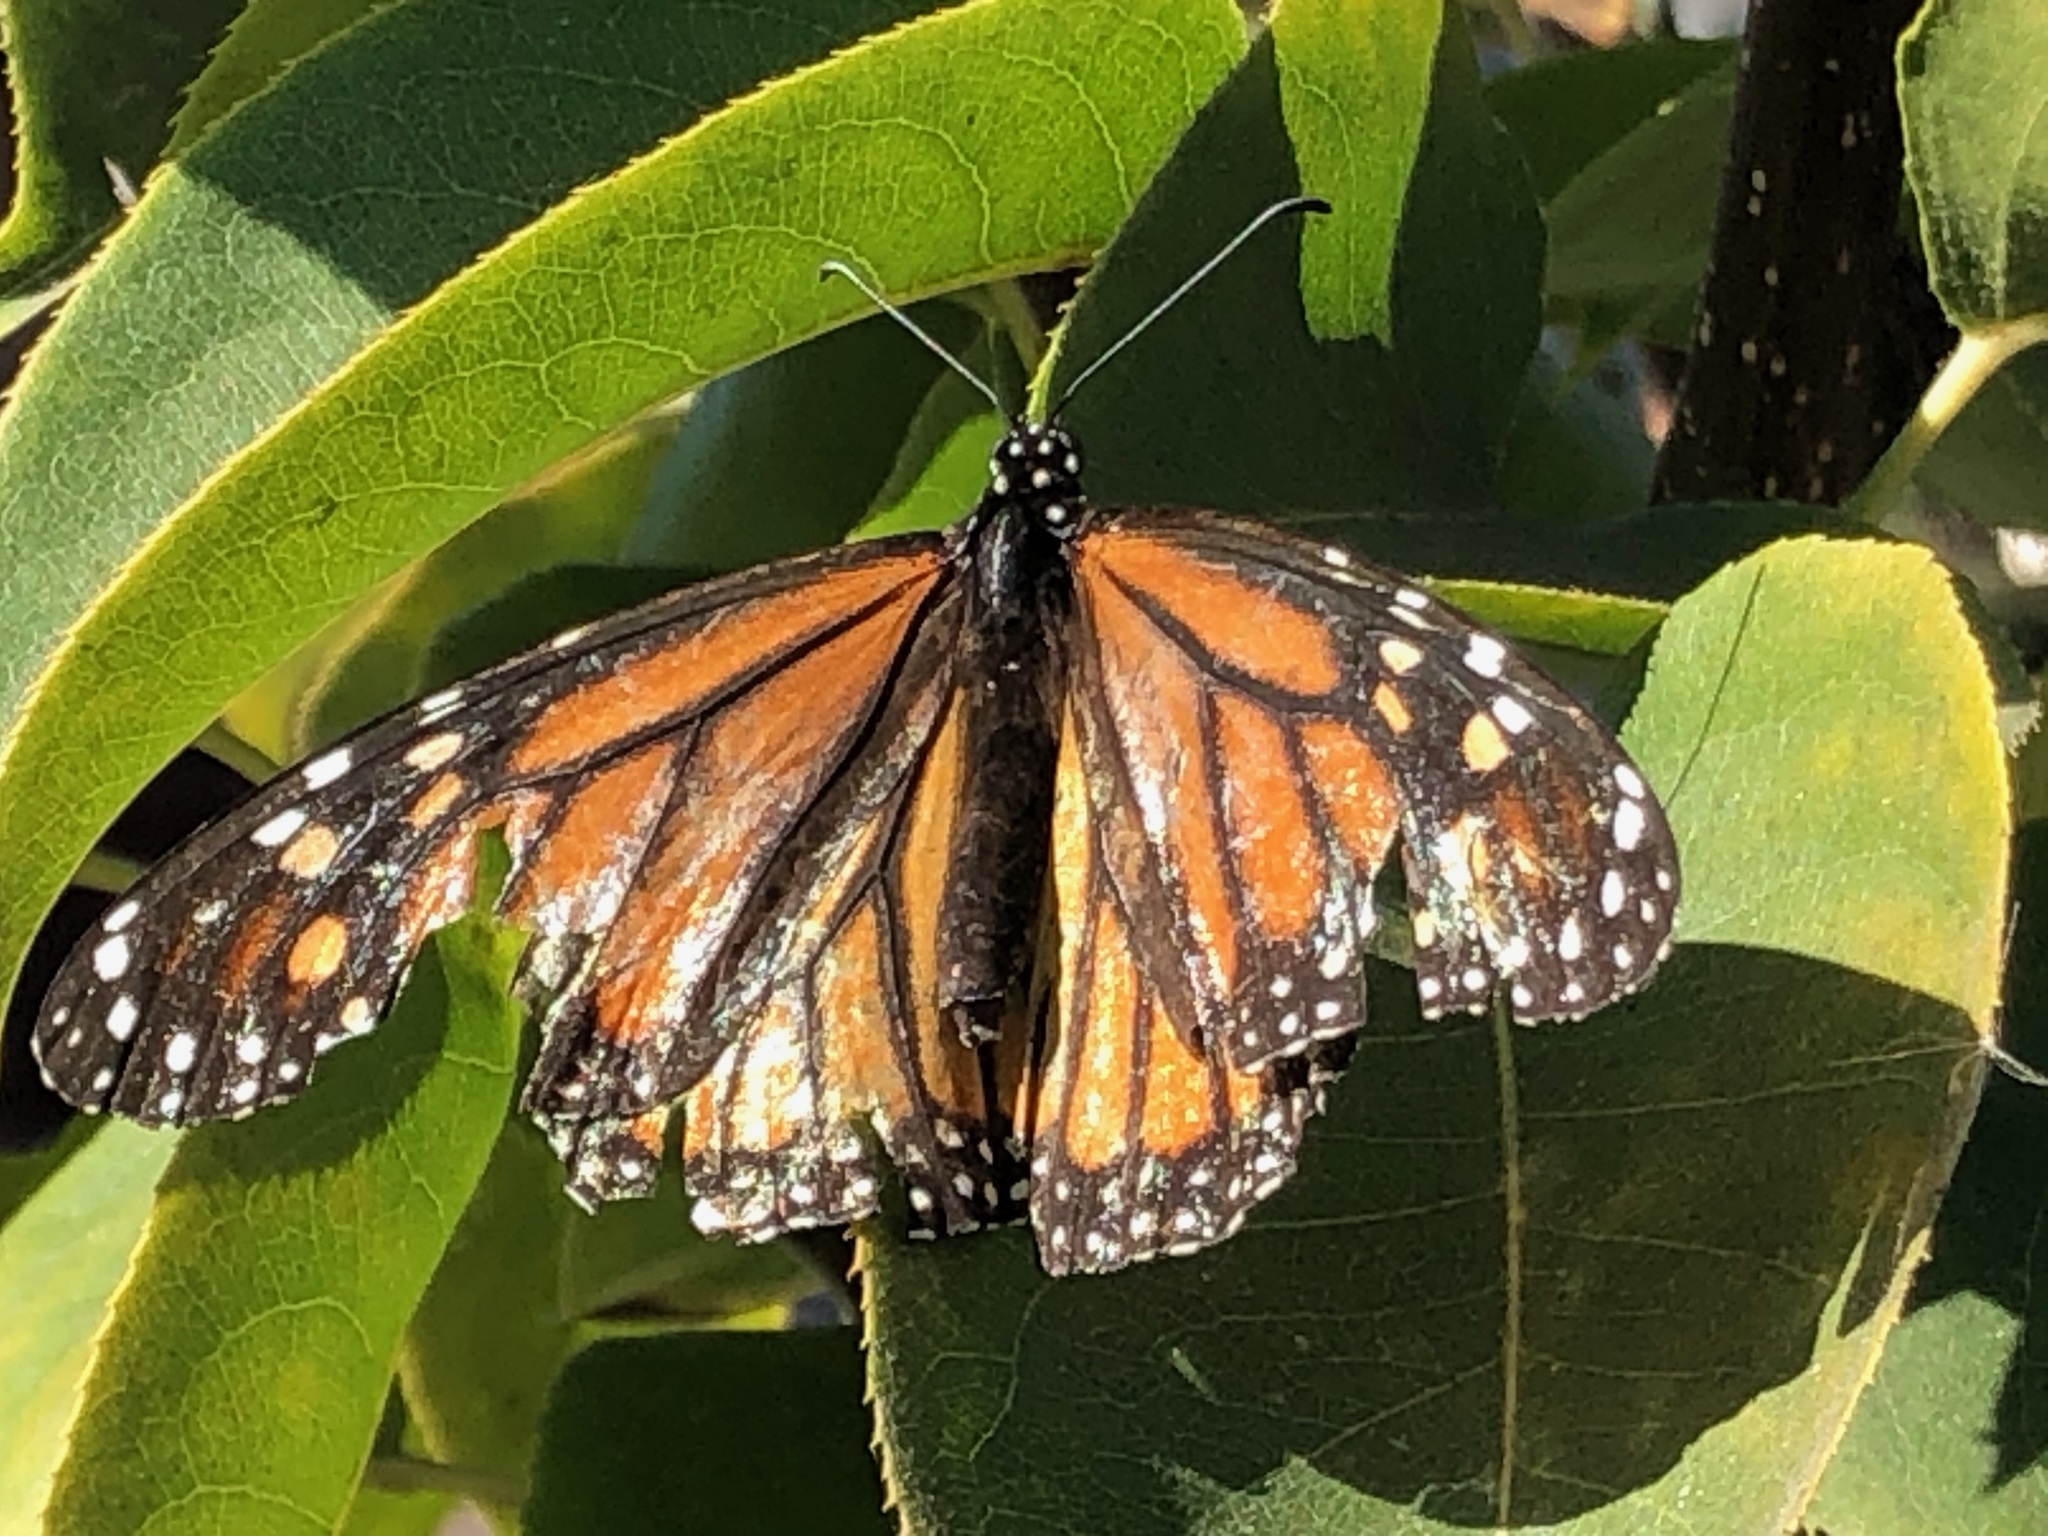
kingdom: Animalia
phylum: Arthropoda
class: Insecta
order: Lepidoptera
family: Nymphalidae
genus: Danaus
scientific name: Danaus plexippus
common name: Monarch
